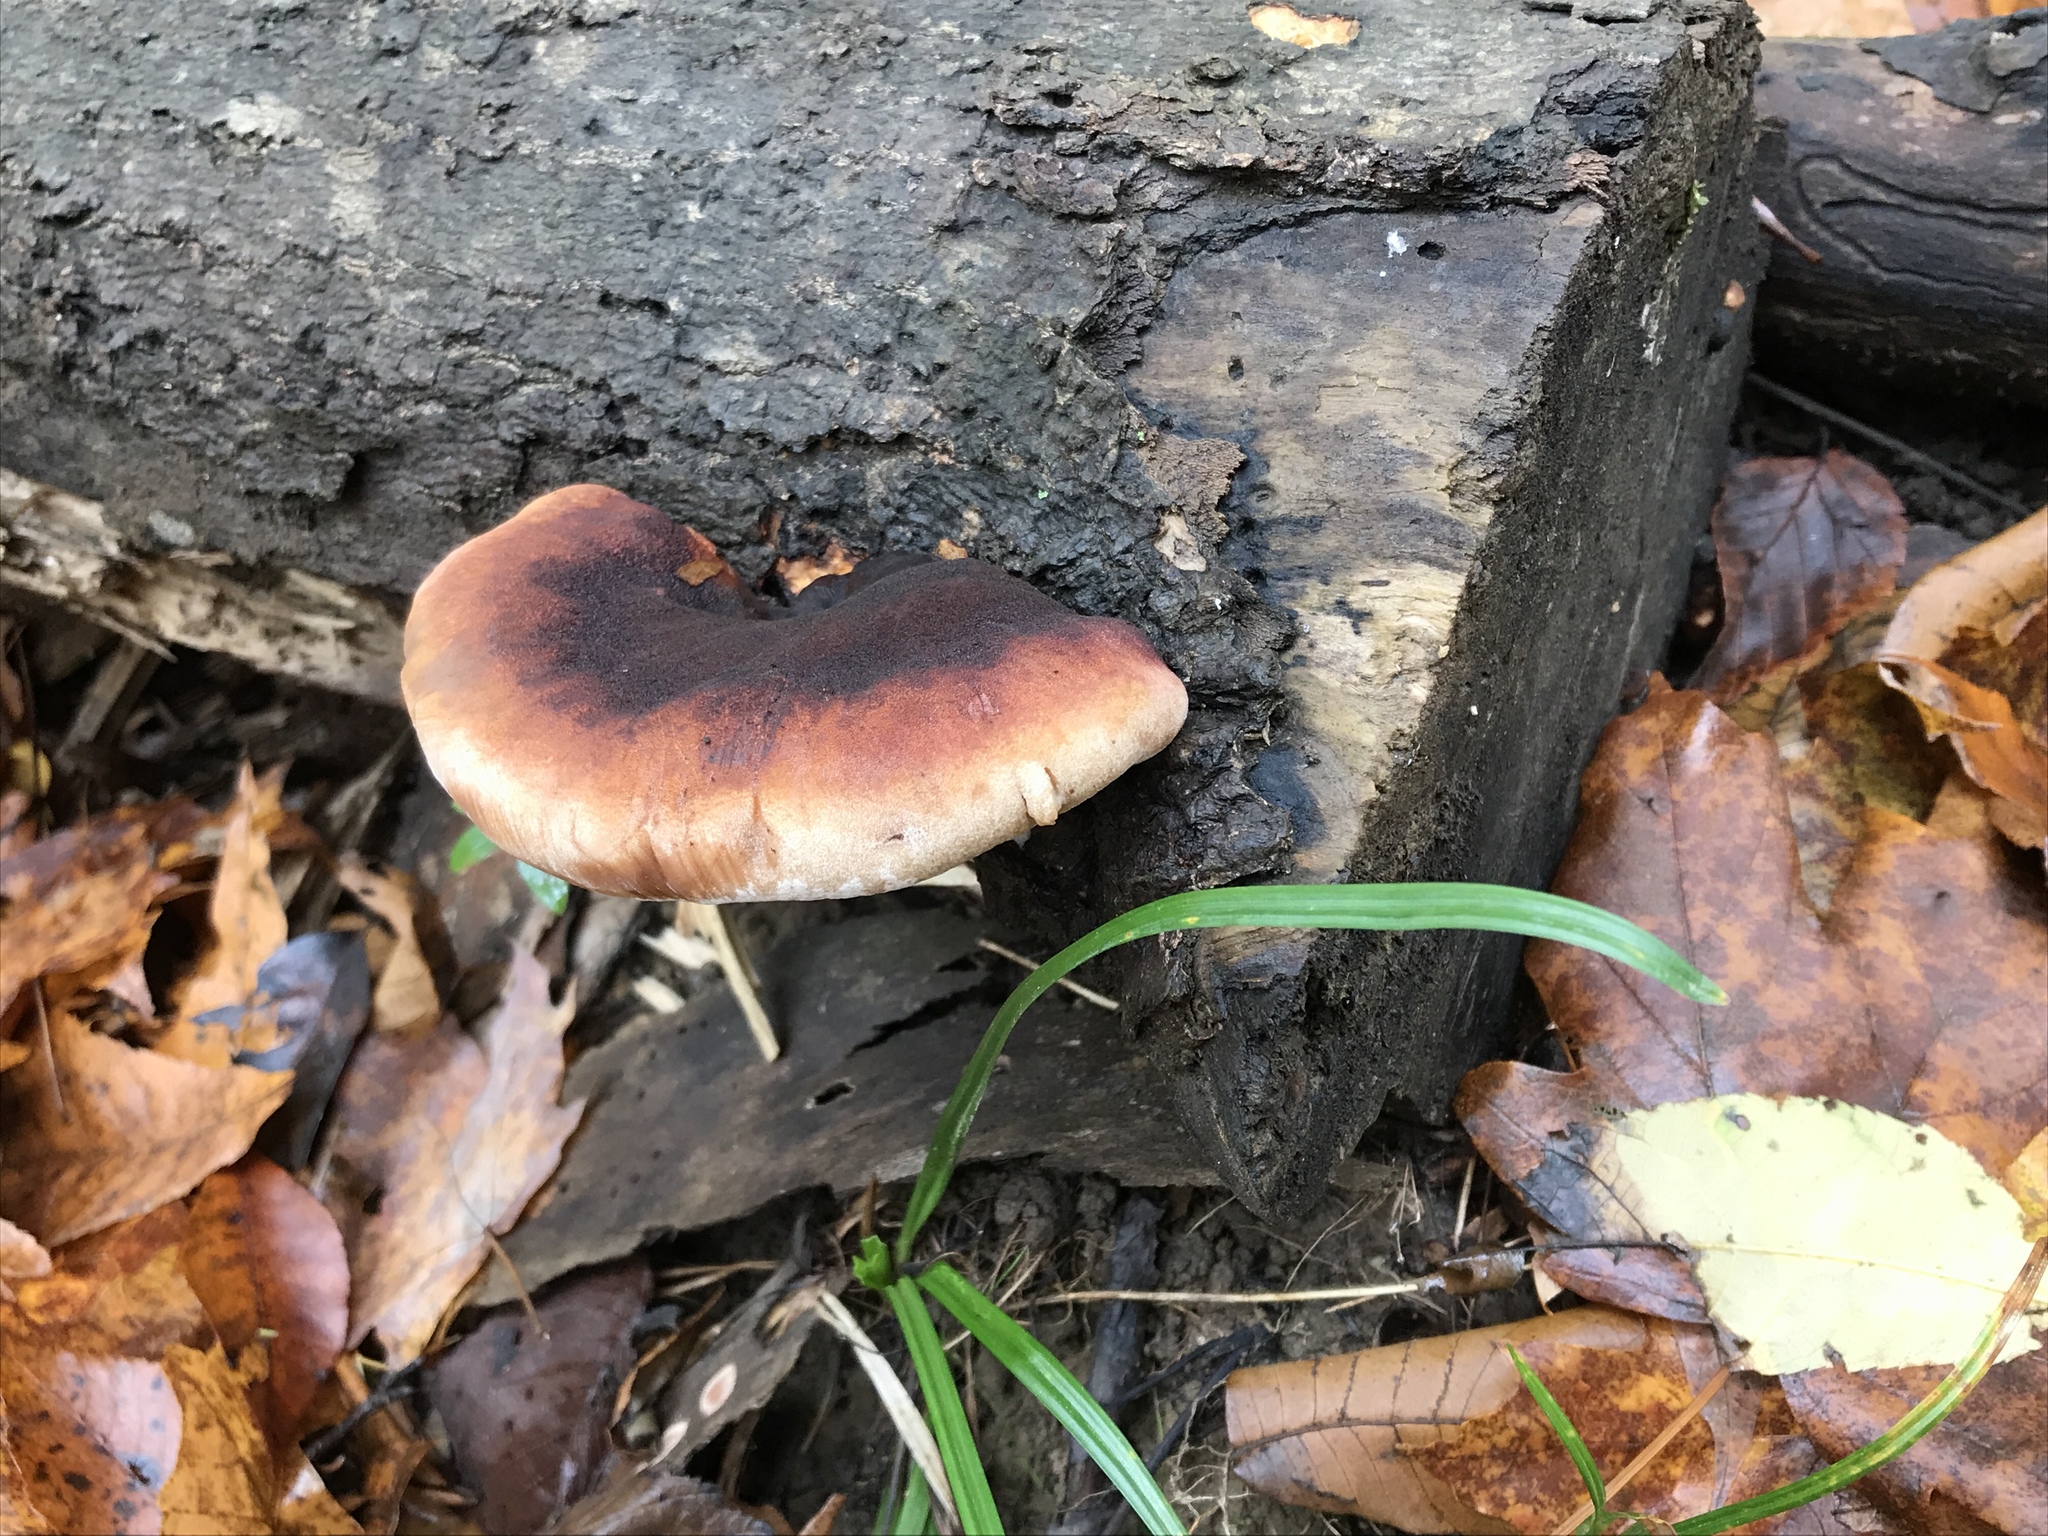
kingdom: Fungi
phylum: Basidiomycota
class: Agaricomycetes
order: Polyporales
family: Ischnodermataceae
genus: Ischnoderma
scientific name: Ischnoderma resinosum
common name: Resinous polypore
